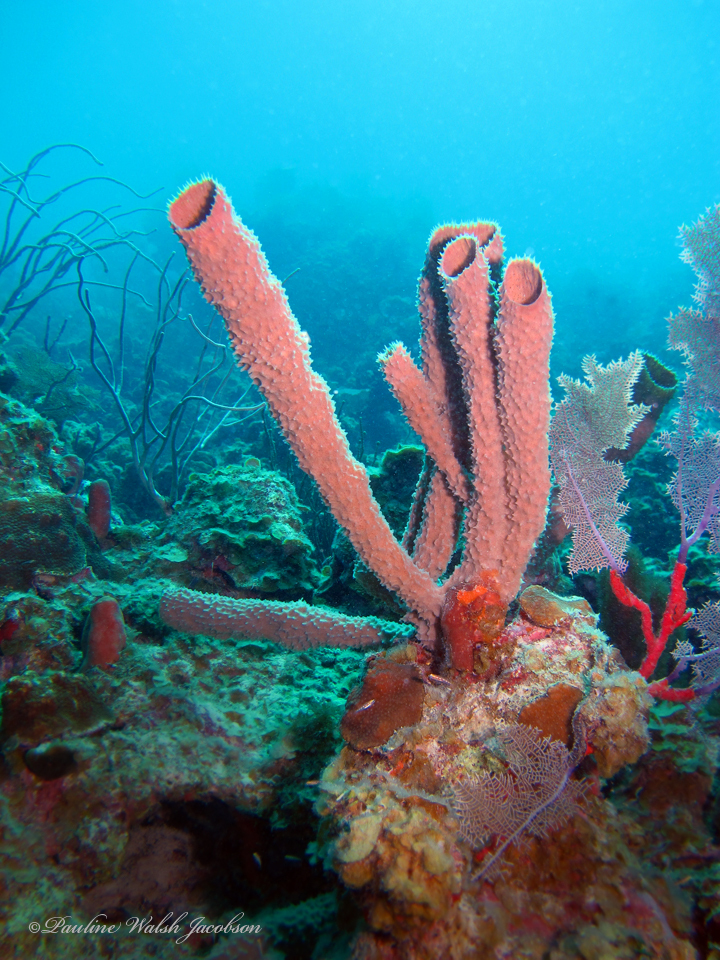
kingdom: Animalia
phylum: Porifera
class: Demospongiae
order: Haplosclerida
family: Callyspongiidae
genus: Callyspongia
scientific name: Callyspongia aculeata
